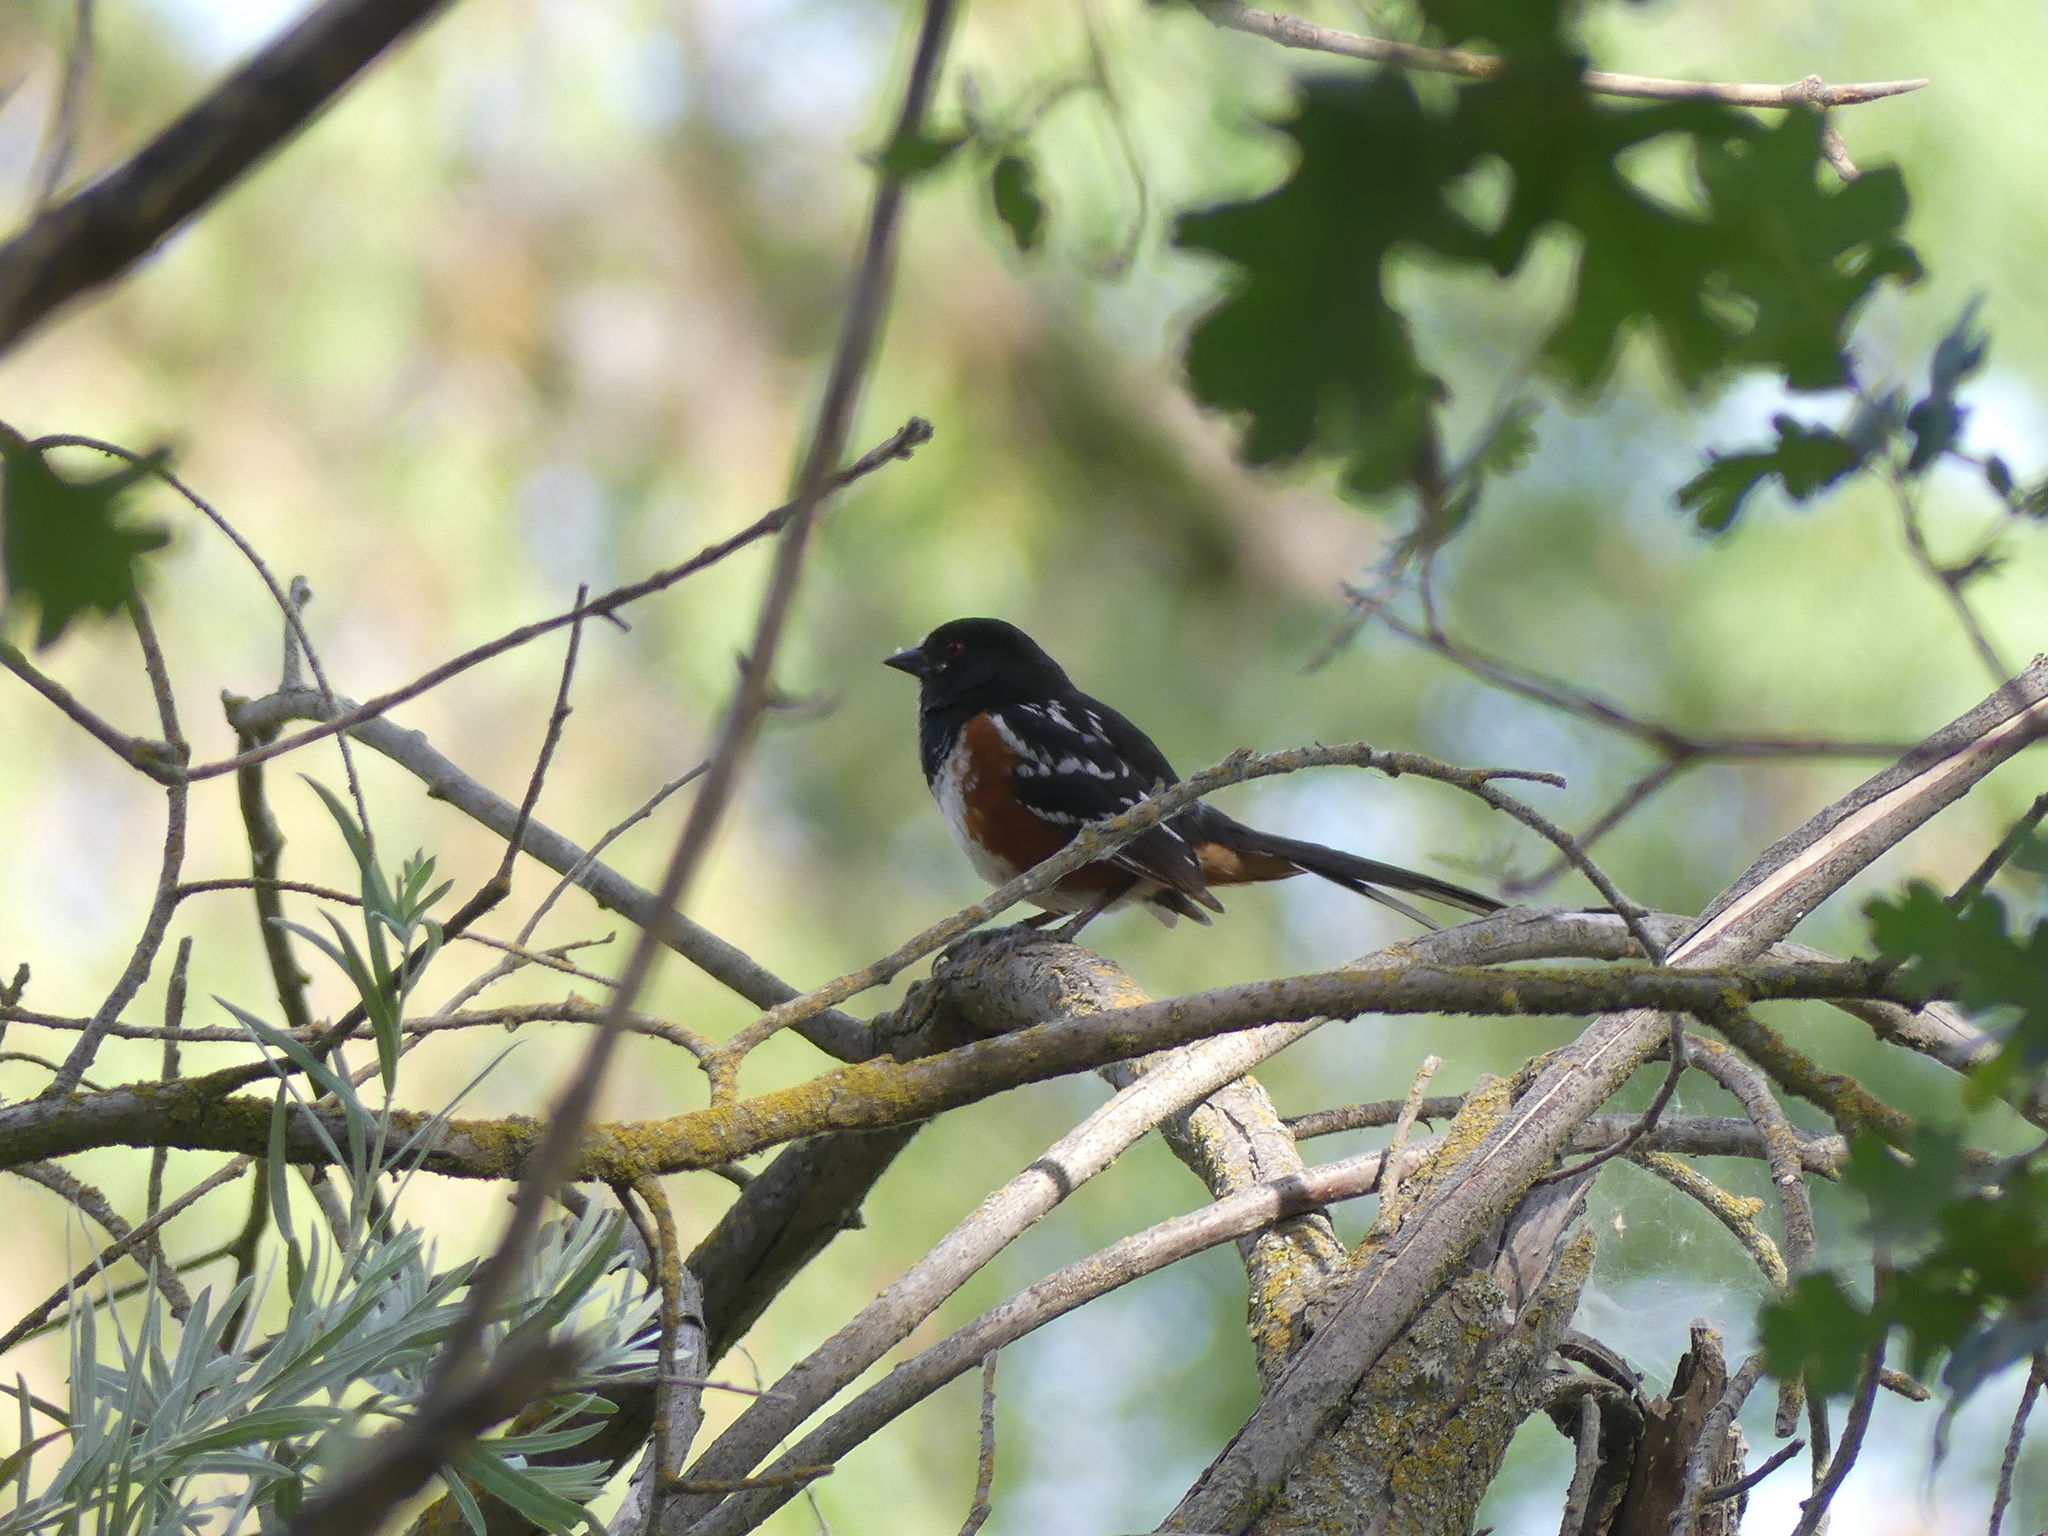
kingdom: Animalia
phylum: Chordata
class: Aves
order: Passeriformes
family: Passerellidae
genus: Pipilo
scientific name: Pipilo maculatus
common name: Spotted towhee
